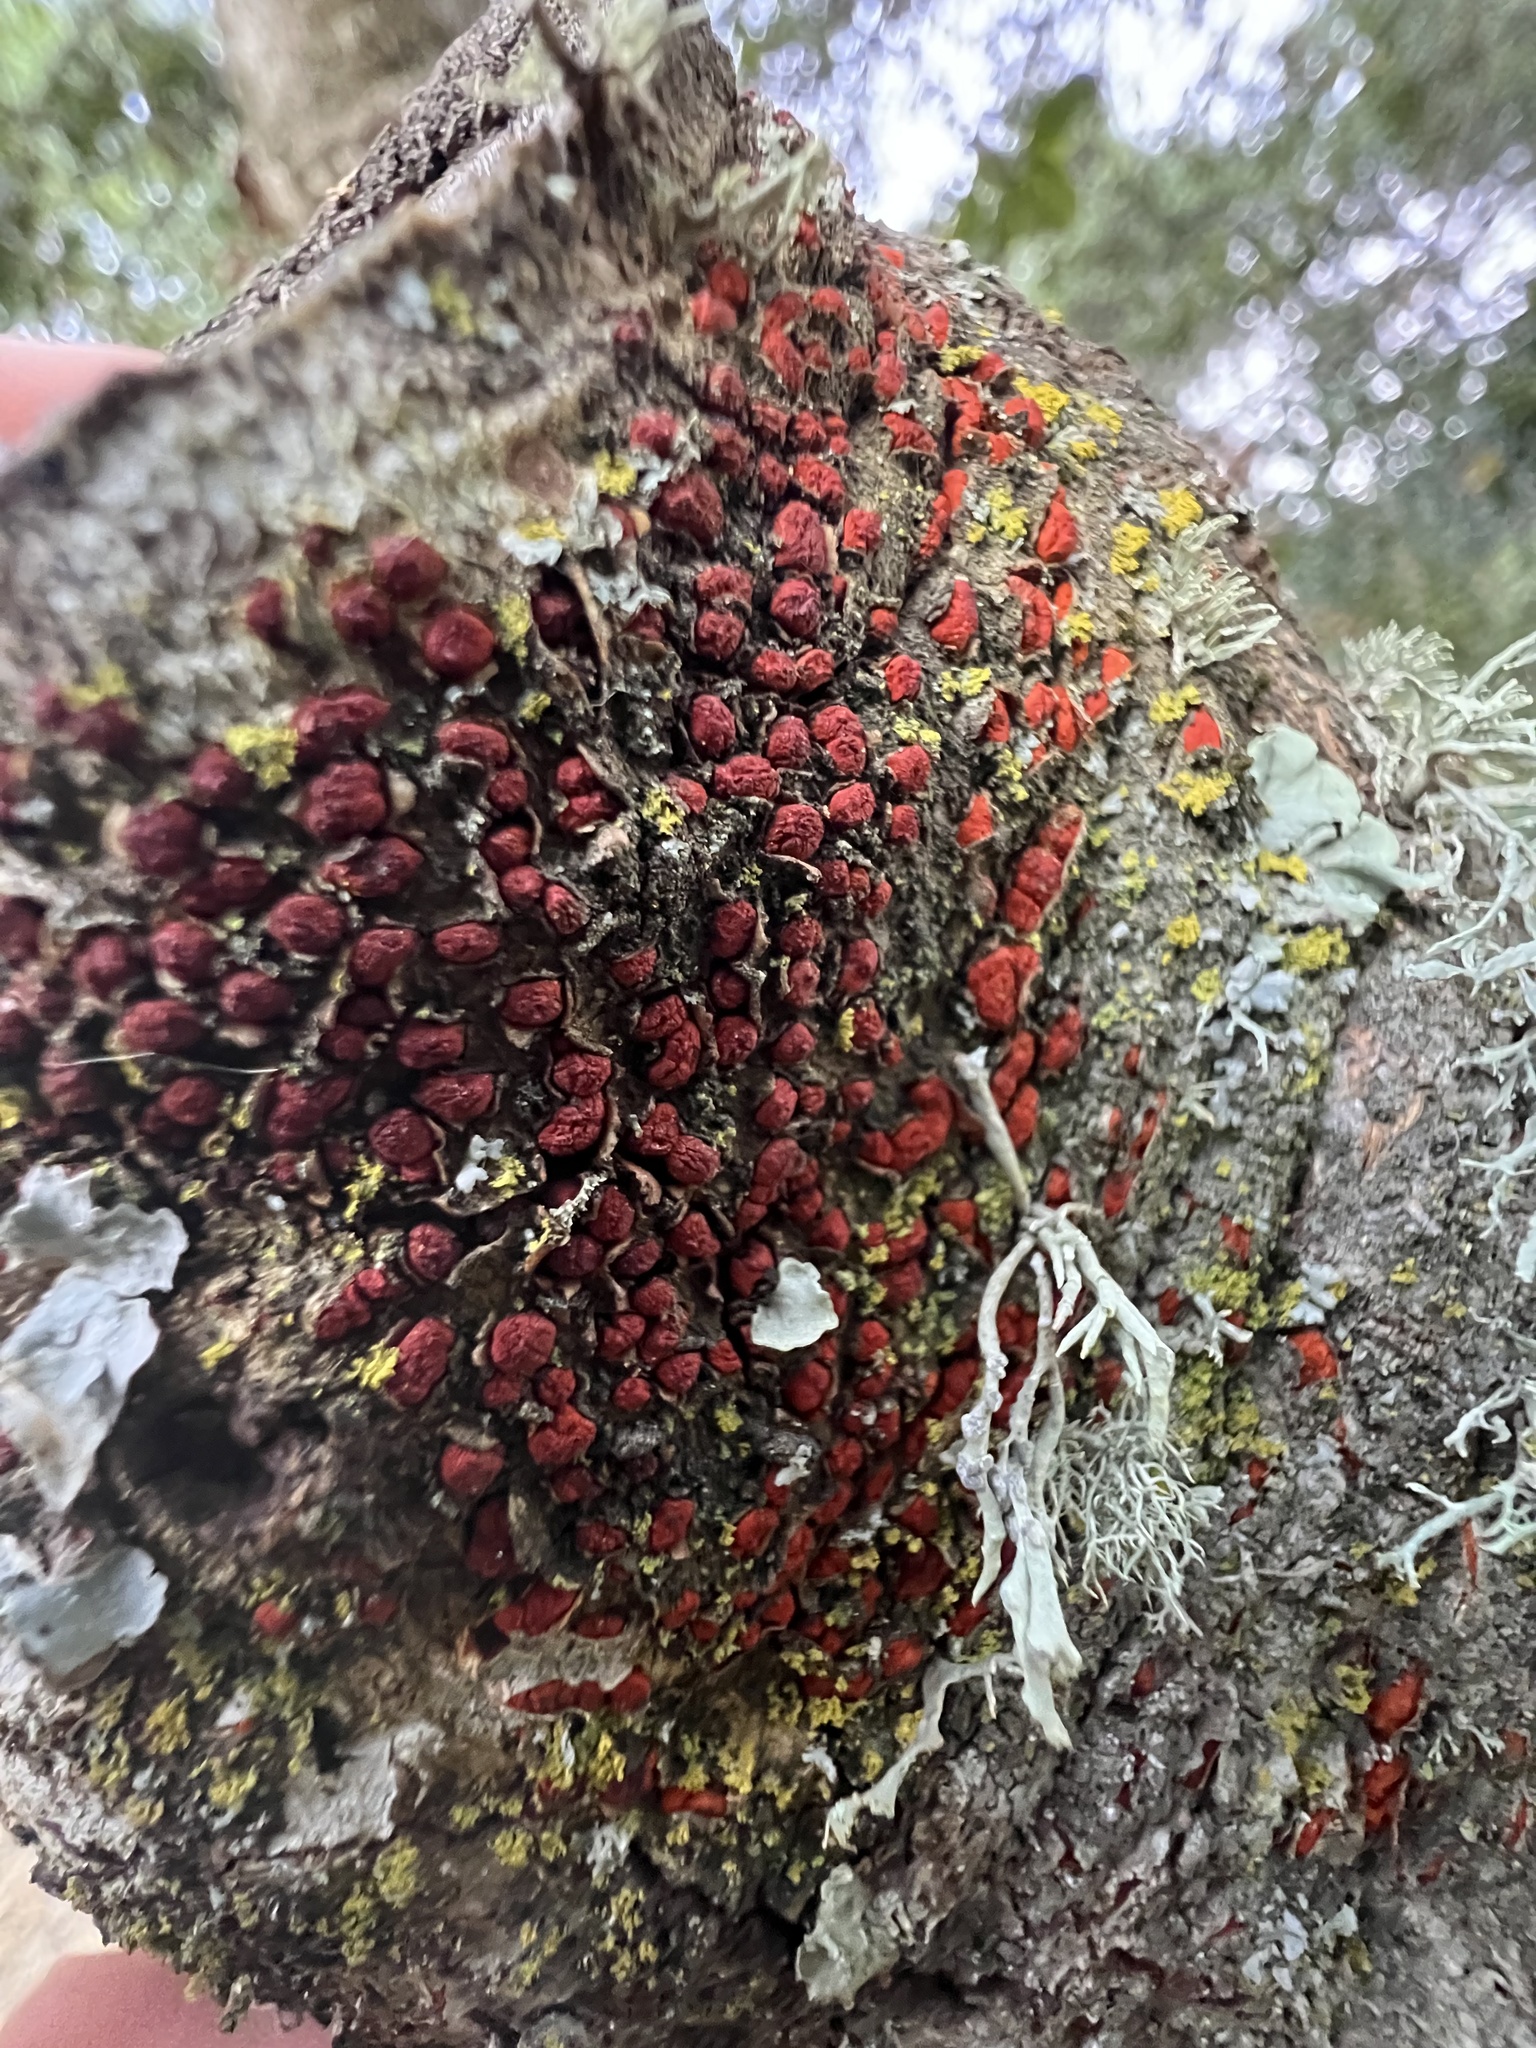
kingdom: Fungi
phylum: Ascomycota
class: Sordariomycetes
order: Diaporthales
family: Cryphonectriaceae
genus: Amphilogia
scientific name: Amphilogia gyrosa
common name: Orange hobnail canker
